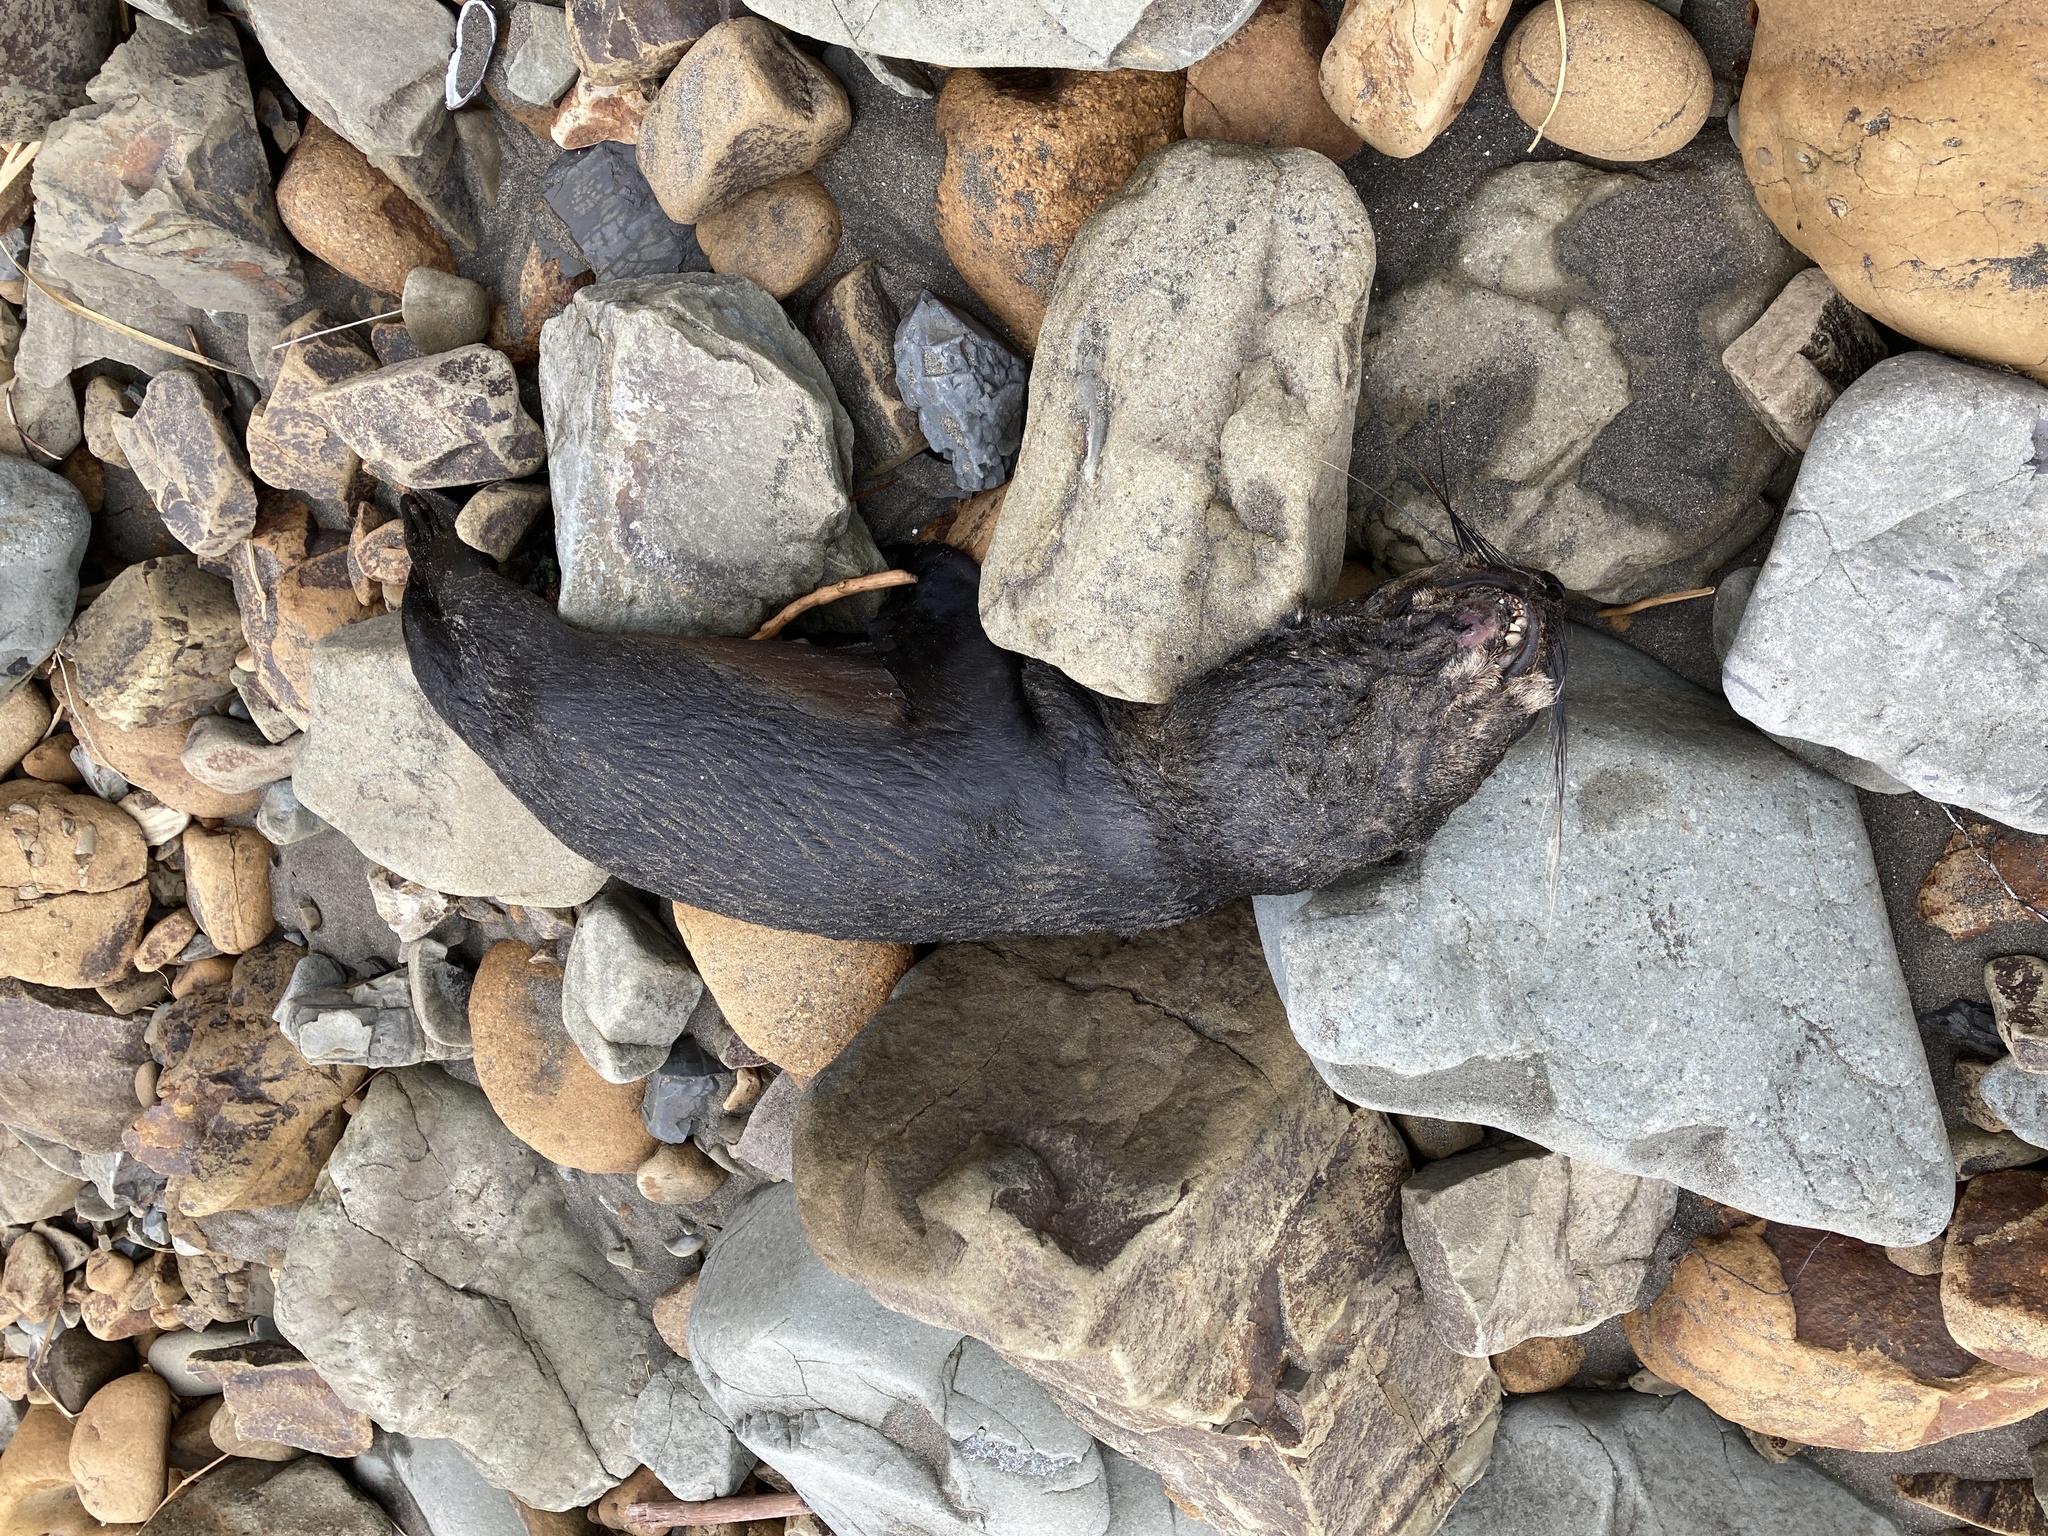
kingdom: Animalia
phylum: Chordata
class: Mammalia
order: Carnivora
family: Otariidae
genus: Arctocephalus
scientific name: Arctocephalus forsteri
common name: New zealand fur seal
